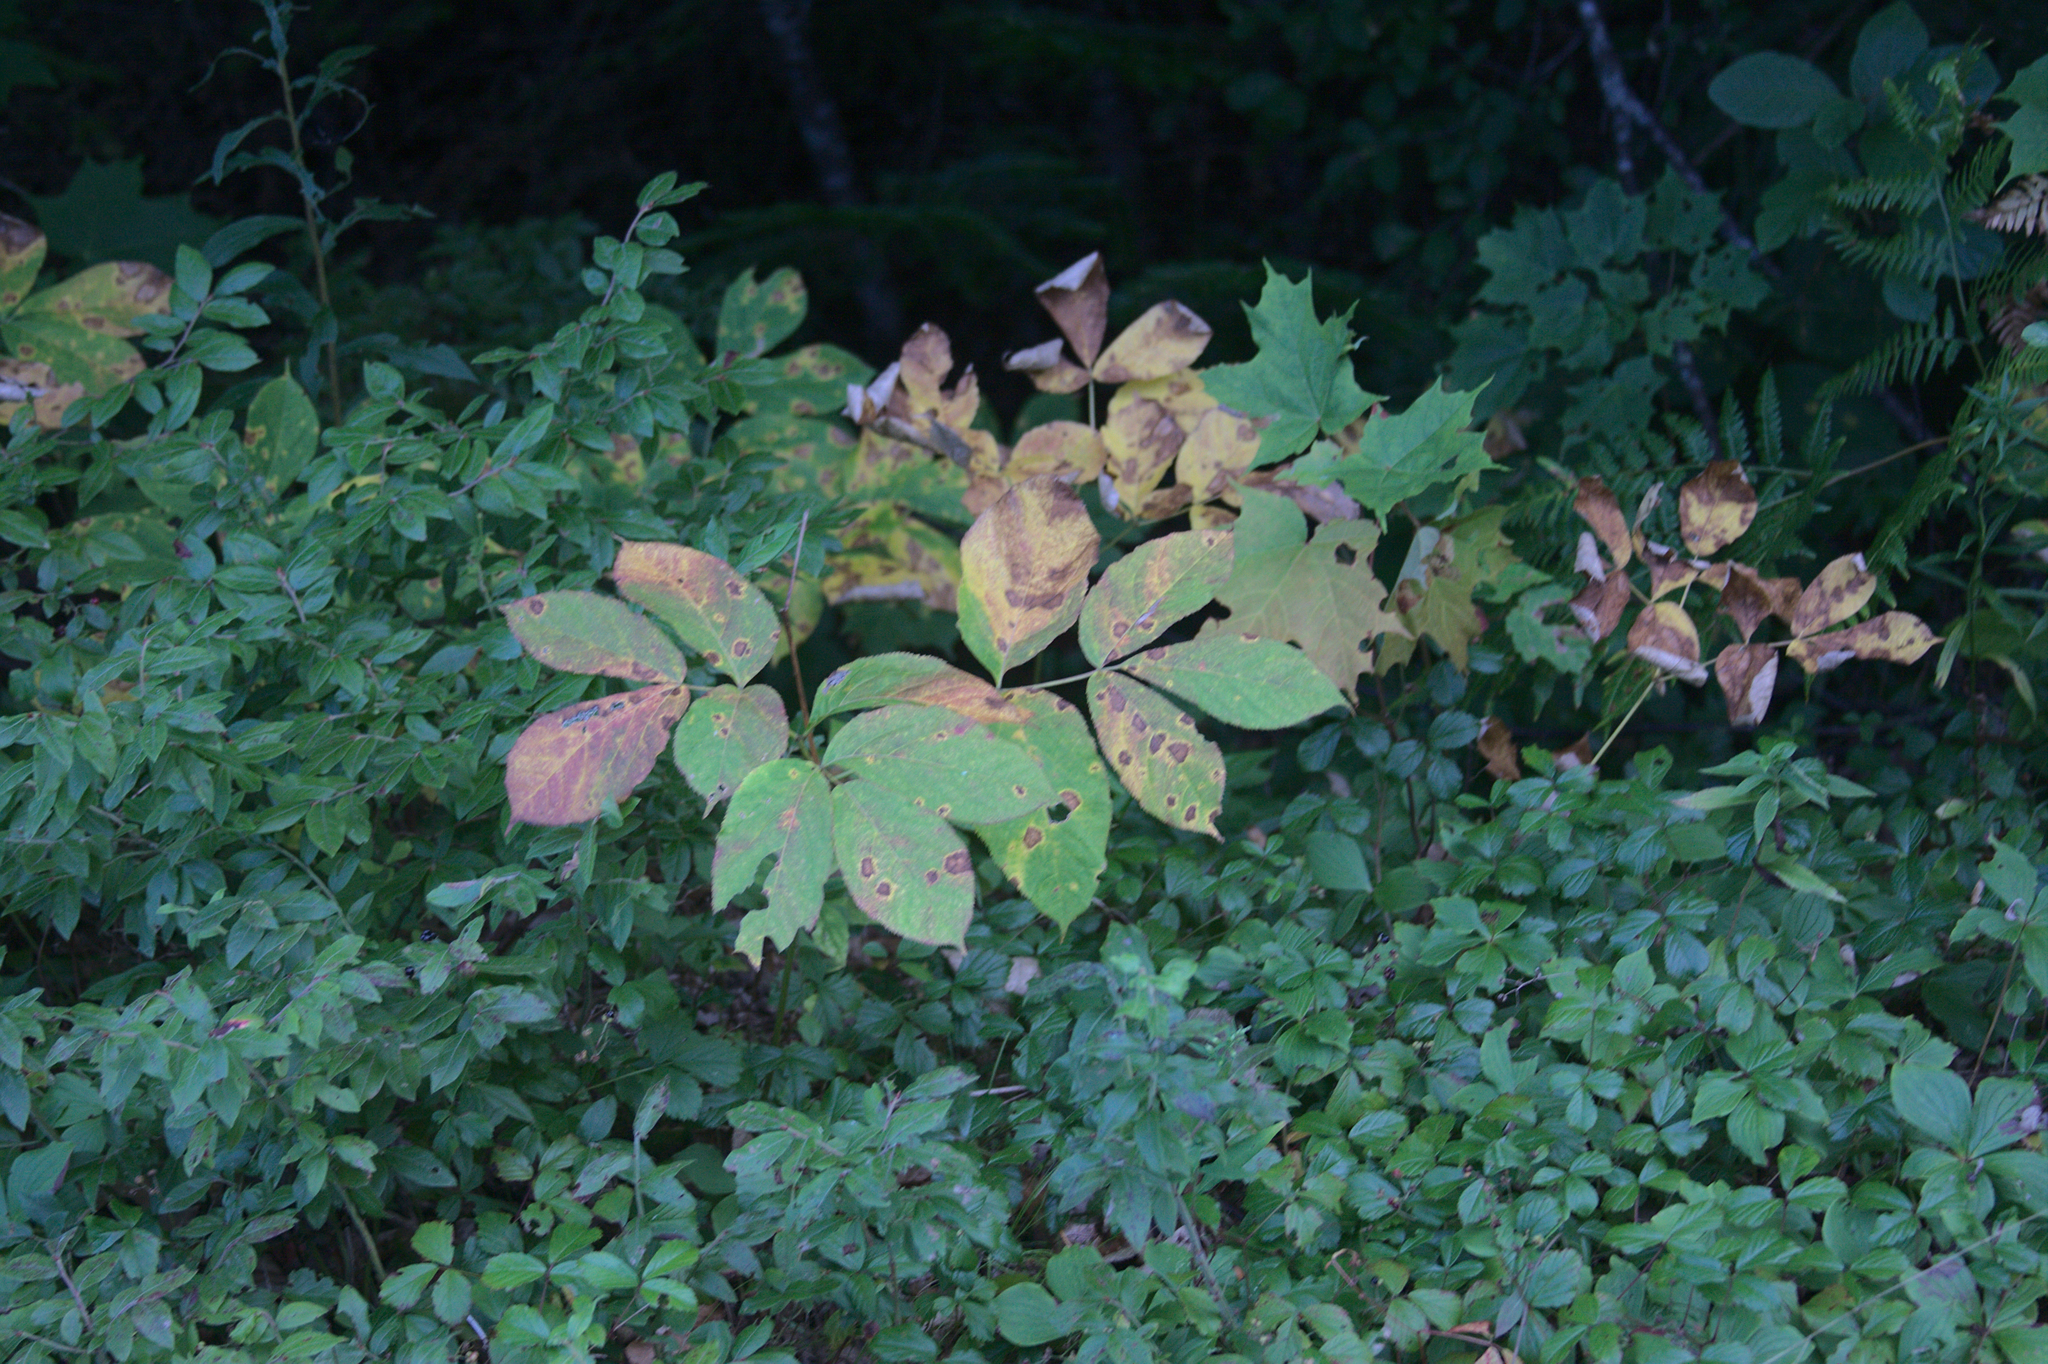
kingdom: Plantae
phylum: Tracheophyta
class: Magnoliopsida
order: Apiales
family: Araliaceae
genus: Aralia
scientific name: Aralia nudicaulis
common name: Wild sarsaparilla
